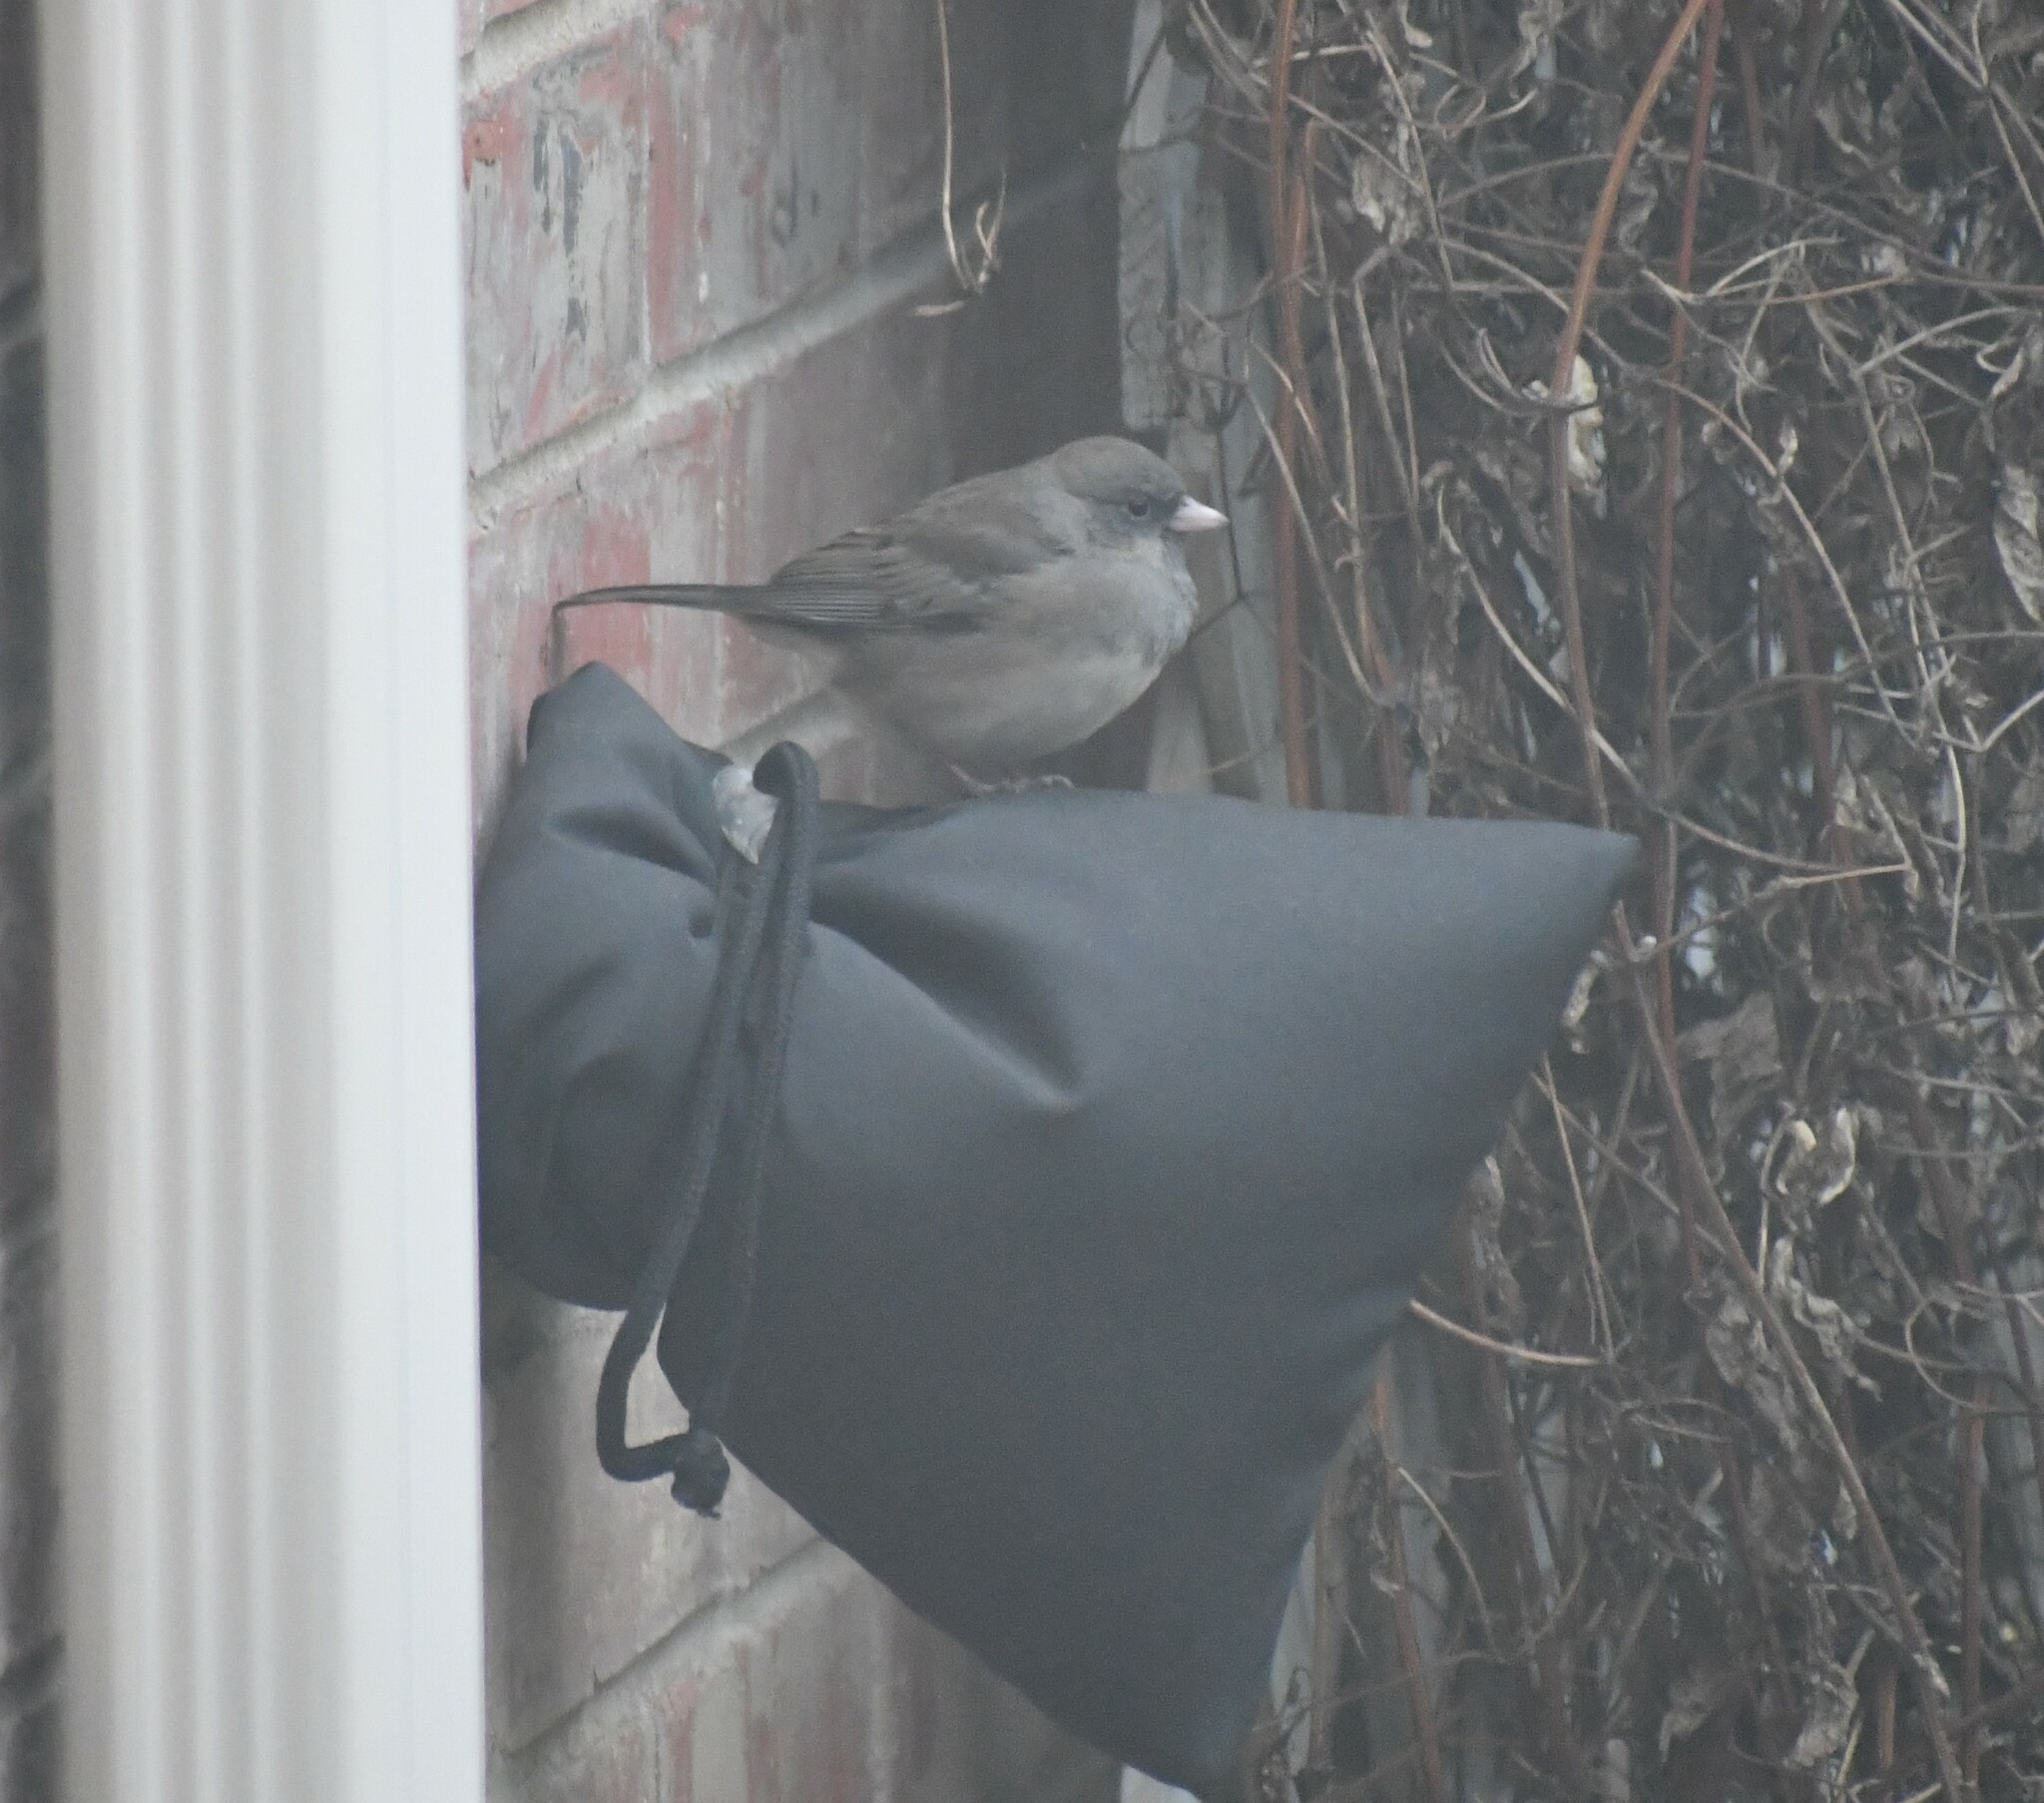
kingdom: Animalia
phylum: Chordata
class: Aves
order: Passeriformes
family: Passerellidae
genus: Junco
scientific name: Junco hyemalis
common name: Dark-eyed junco
